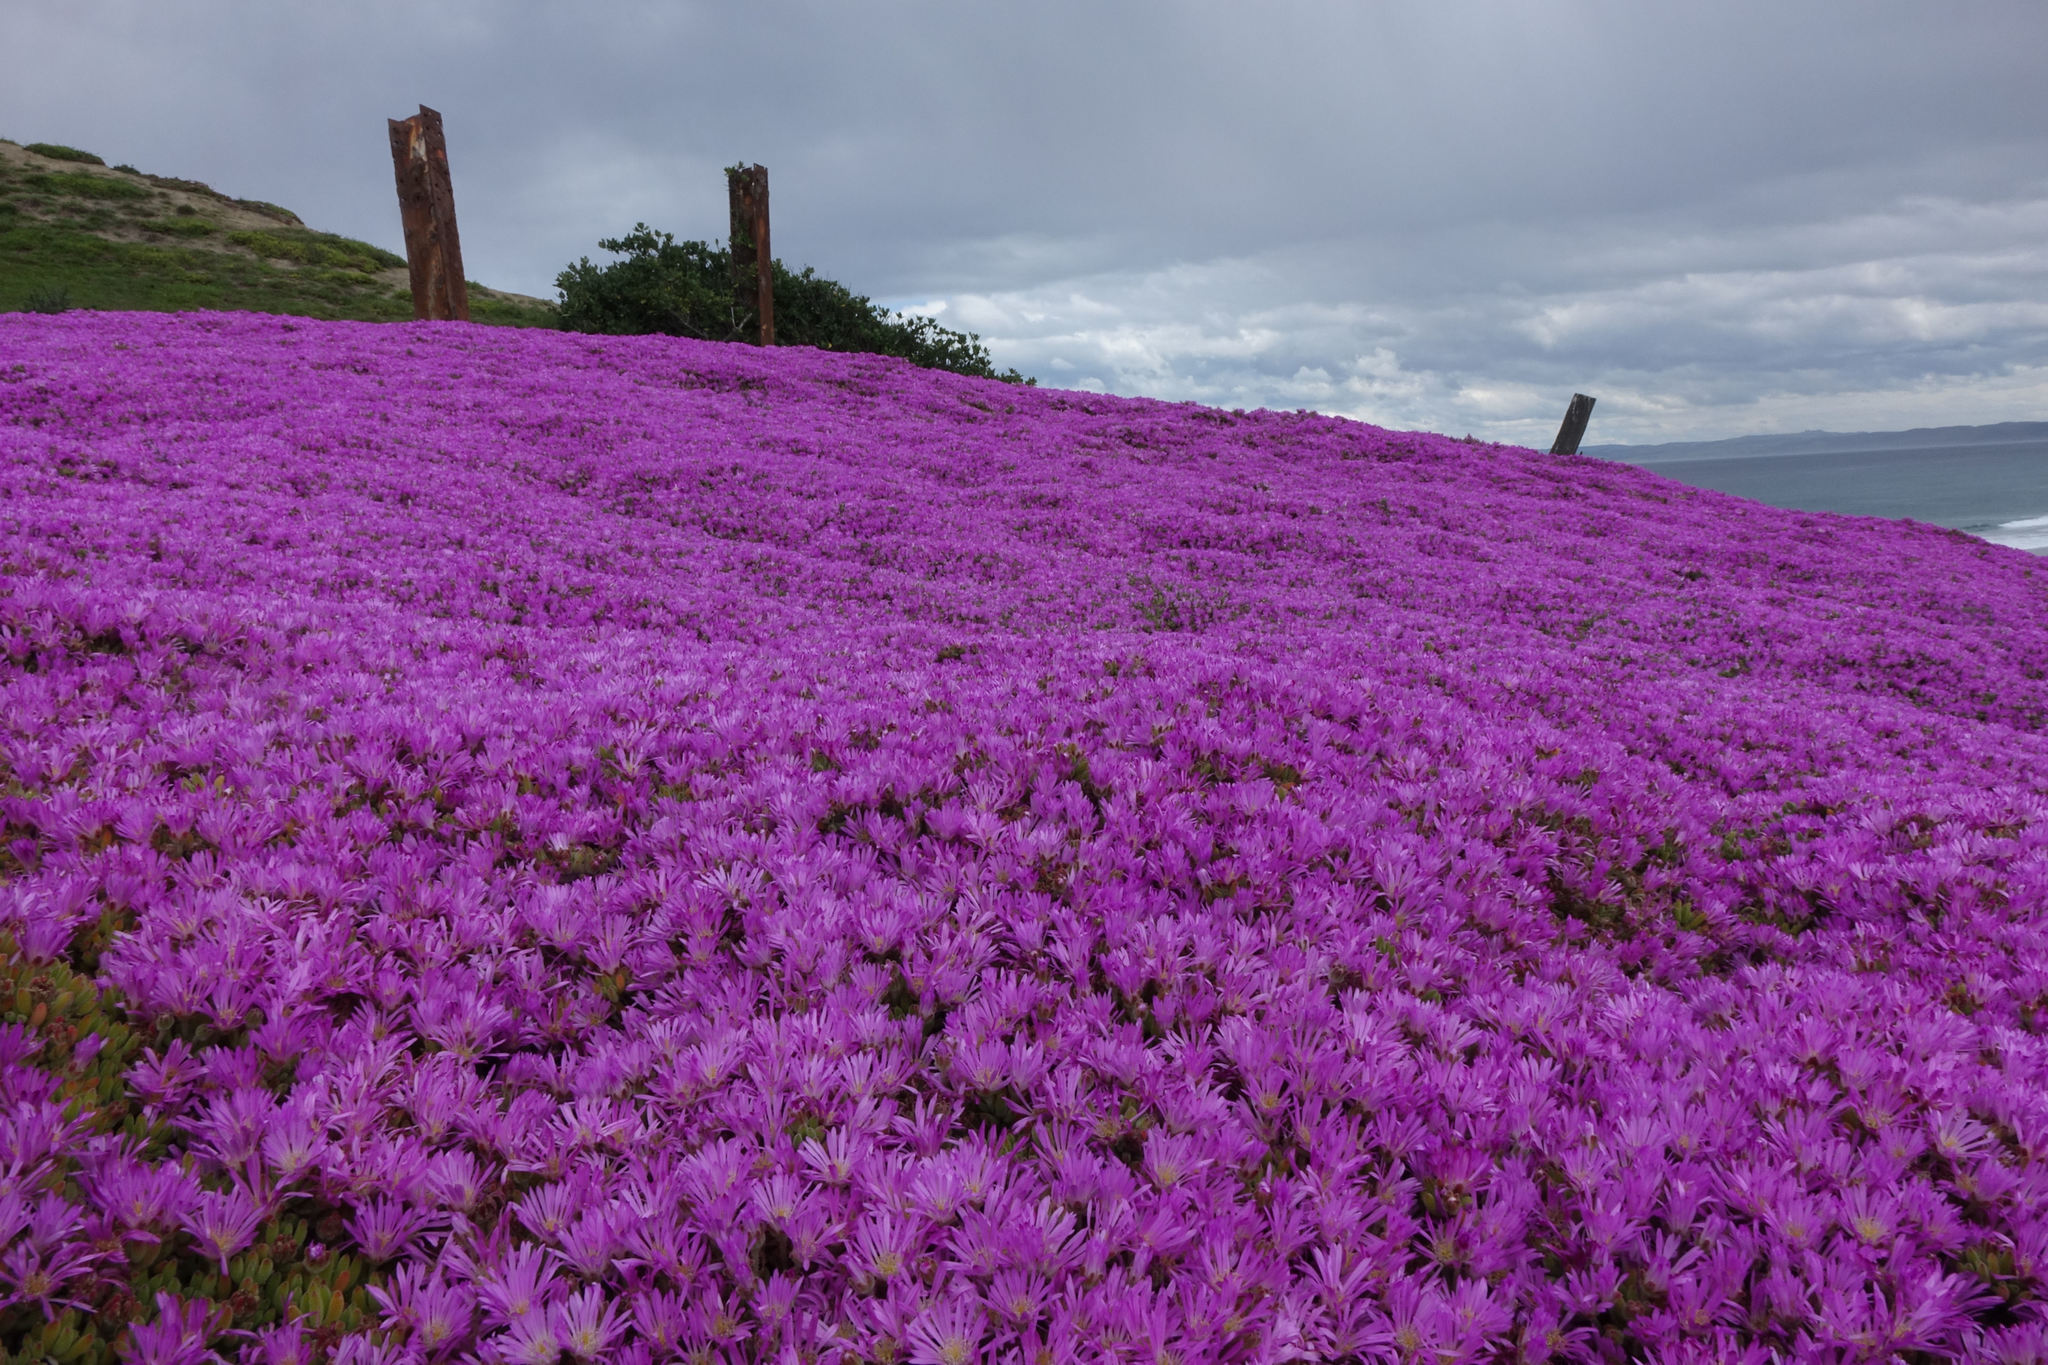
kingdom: Plantae
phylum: Tracheophyta
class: Magnoliopsida
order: Caryophyllales
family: Aizoaceae
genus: Drosanthemum
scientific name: Drosanthemum floribundum
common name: Pale dewplant
